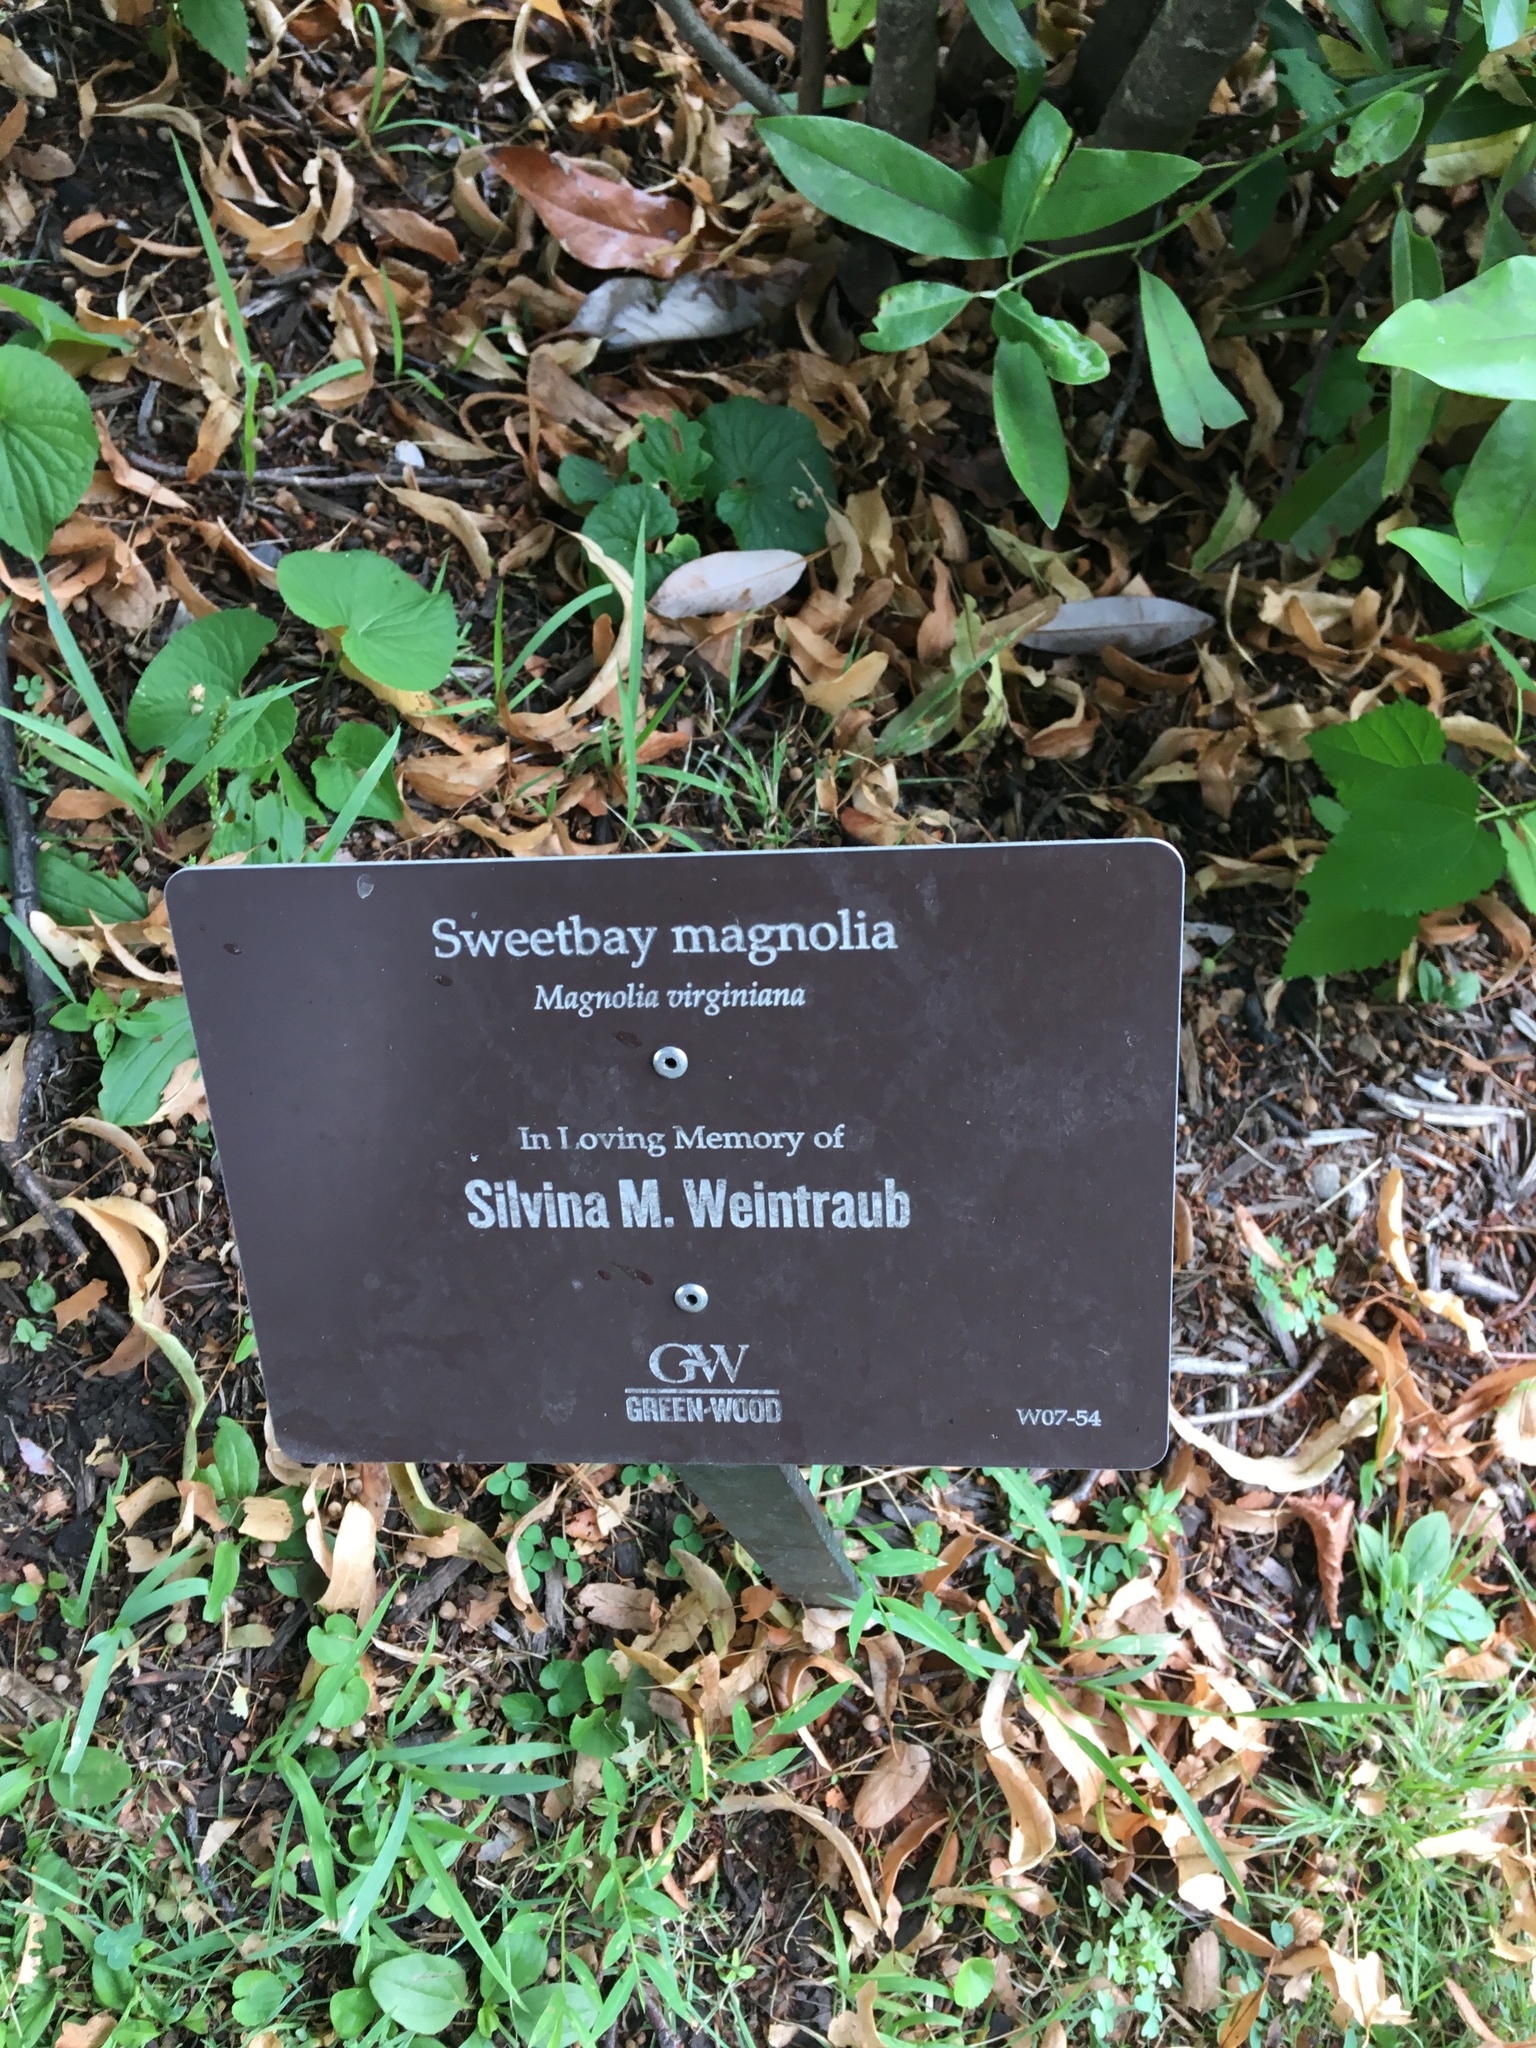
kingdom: Plantae
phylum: Tracheophyta
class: Magnoliopsida
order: Magnoliales
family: Magnoliaceae
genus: Magnolia
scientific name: Magnolia virginiana
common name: Swamp bay
